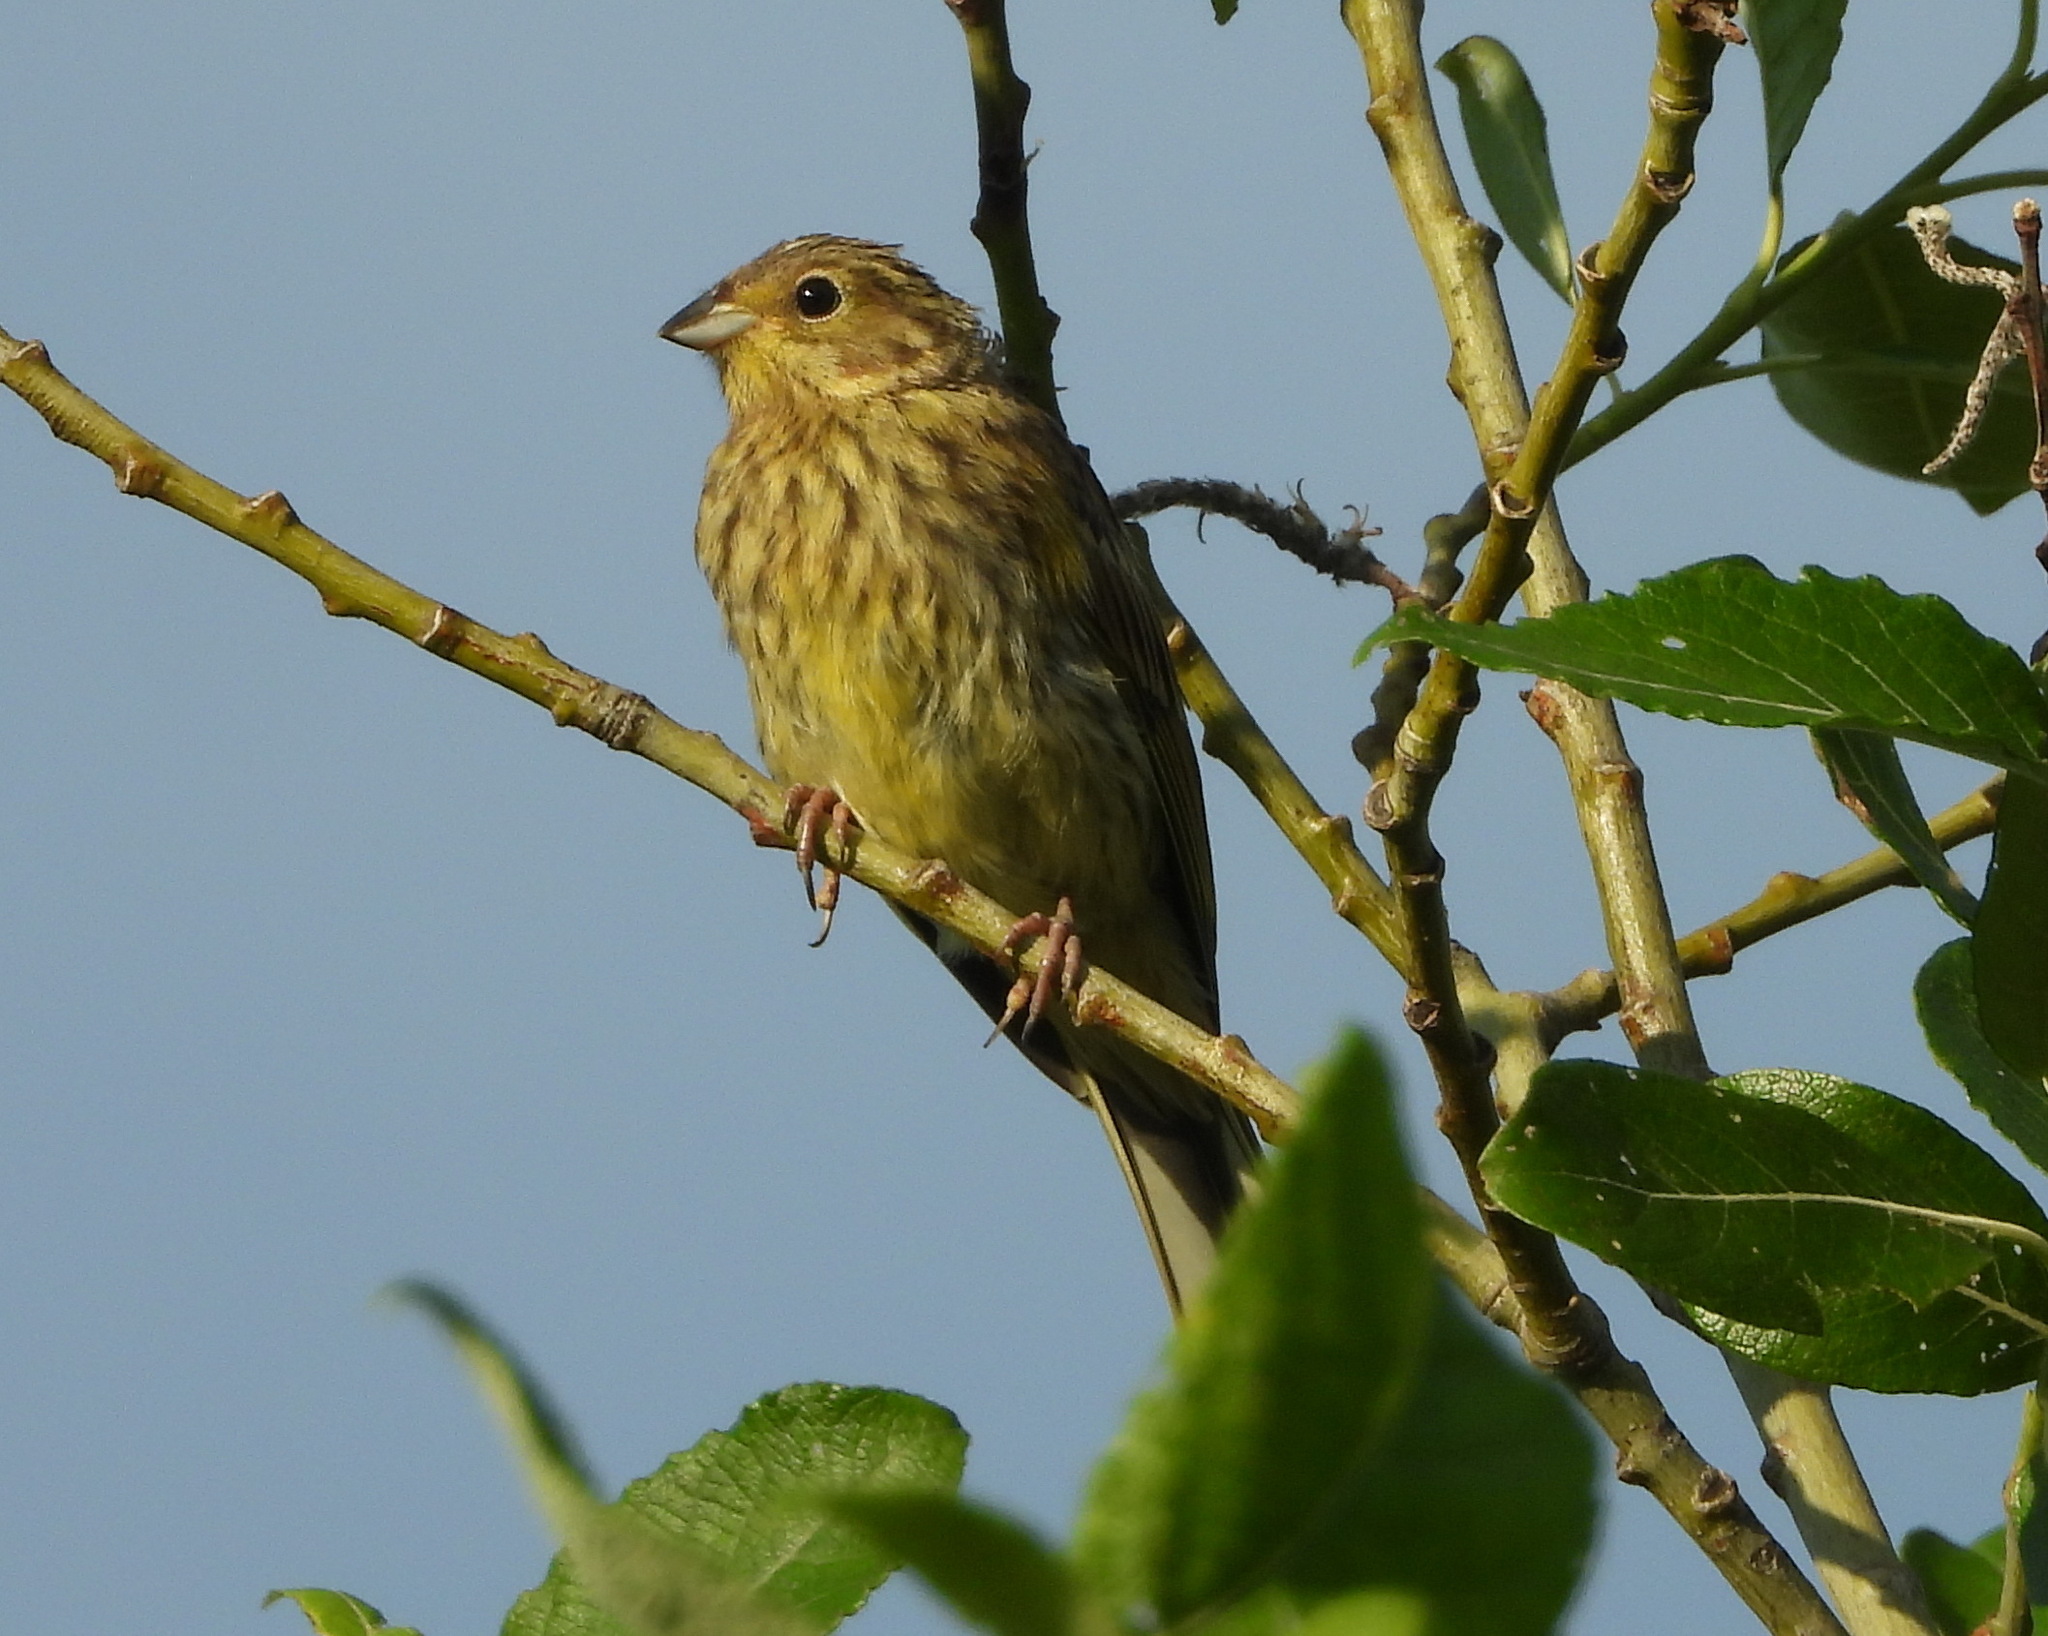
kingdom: Animalia
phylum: Chordata
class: Aves
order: Passeriformes
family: Emberizidae
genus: Emberiza
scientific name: Emberiza citrinella
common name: Yellowhammer
